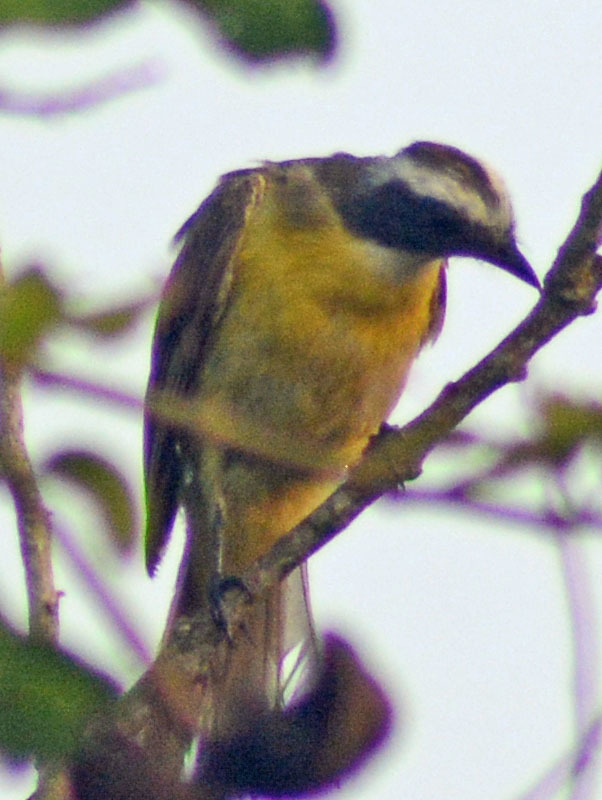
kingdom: Animalia
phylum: Chordata
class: Aves
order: Passeriformes
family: Tyrannidae
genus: Myiozetetes
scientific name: Myiozetetes similis
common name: Social flycatcher
